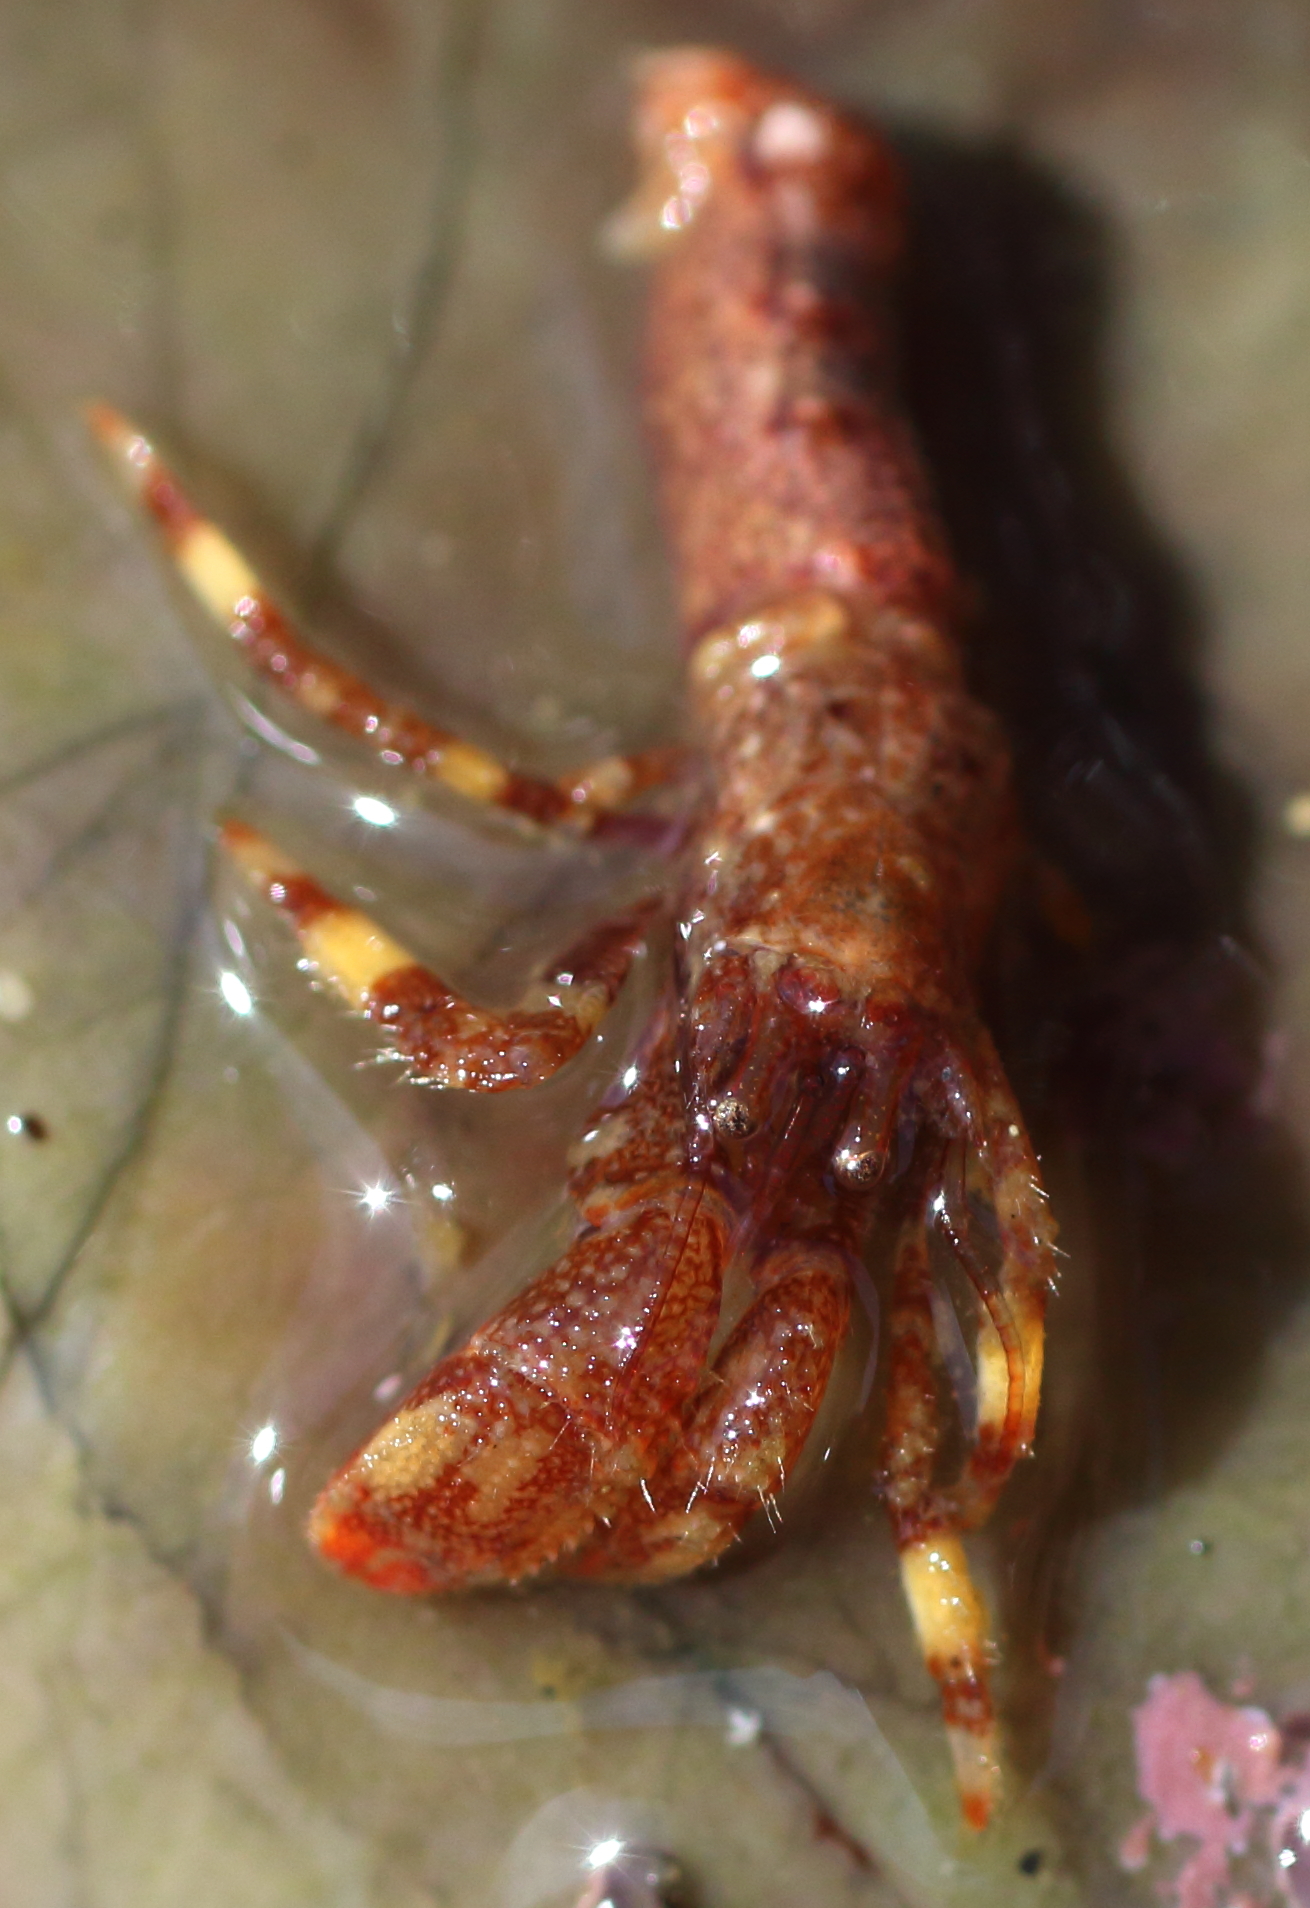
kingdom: Animalia
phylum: Arthropoda
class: Malacostraca
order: Decapoda
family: Paguridae
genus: Discorsopagurus
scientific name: Discorsopagurus schmitti
